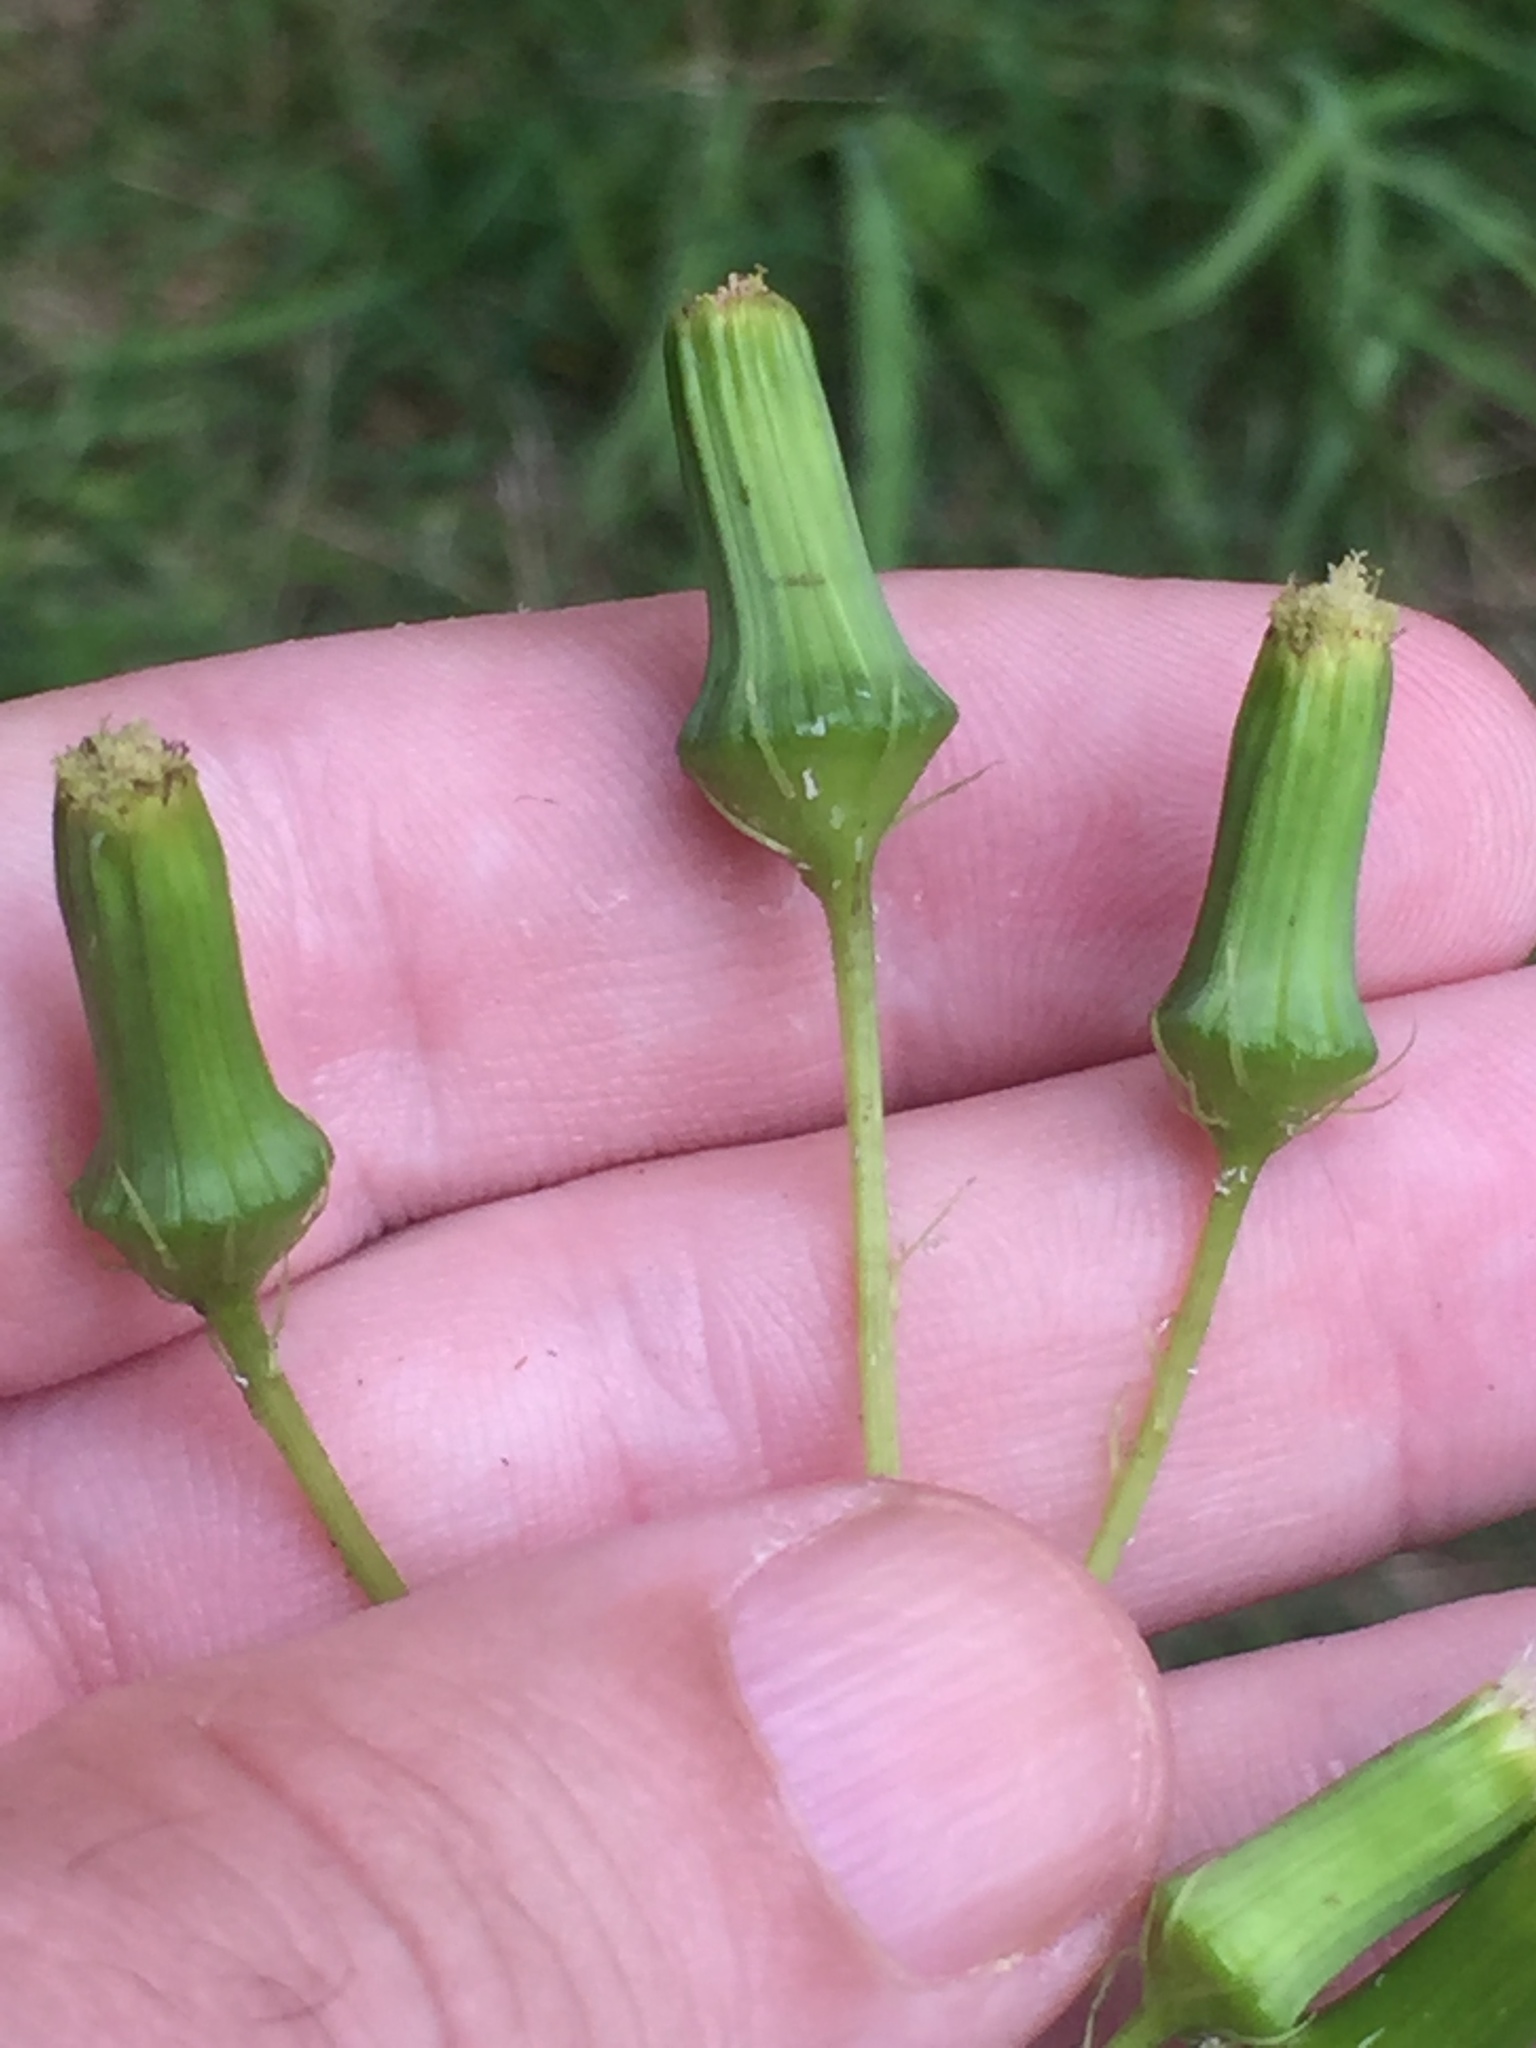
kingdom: Plantae
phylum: Tracheophyta
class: Magnoliopsida
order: Asterales
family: Asteraceae
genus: Erechtites
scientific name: Erechtites hieraciifolius
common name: American burnweed
